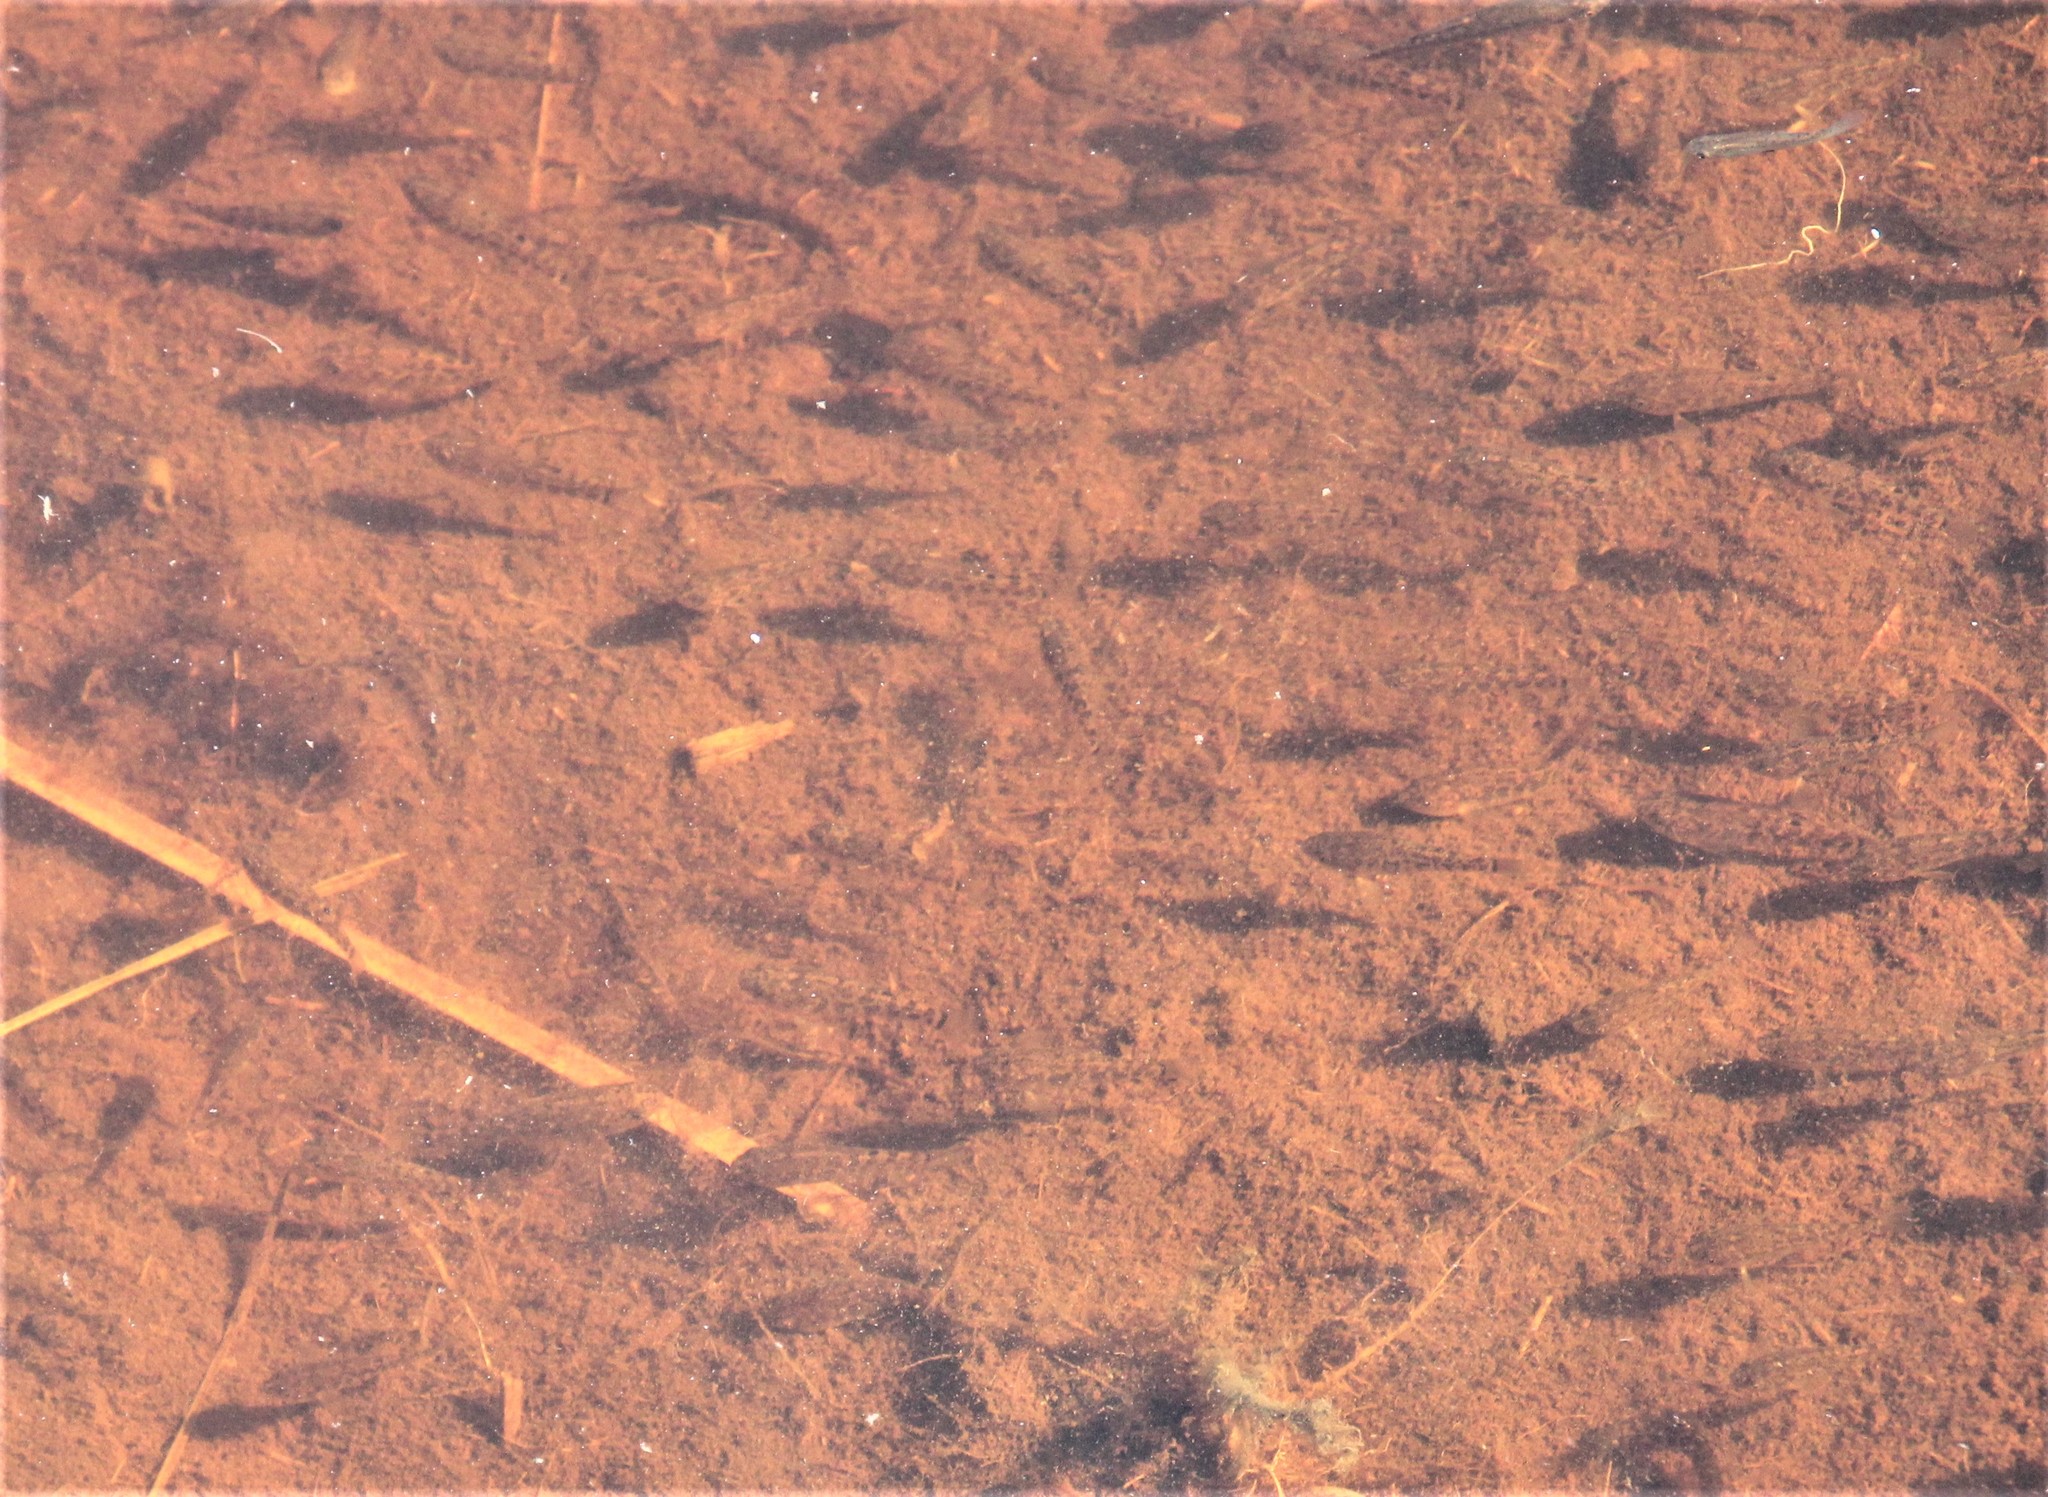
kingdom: Animalia
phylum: Chordata
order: Cyprinodontiformes
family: Cyprinodontidae
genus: Cyprinodon
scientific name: Cyprinodon variegatus
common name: Sheepshead minnow
